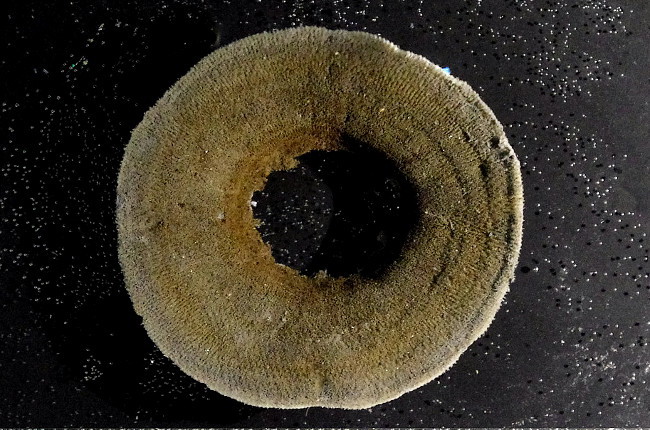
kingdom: Animalia
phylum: Bryozoa
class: Gymnolaemata
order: Ctenostomatida
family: Alcyonidiidae
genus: Alcyonidium
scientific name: Alcyonidium disciforme
